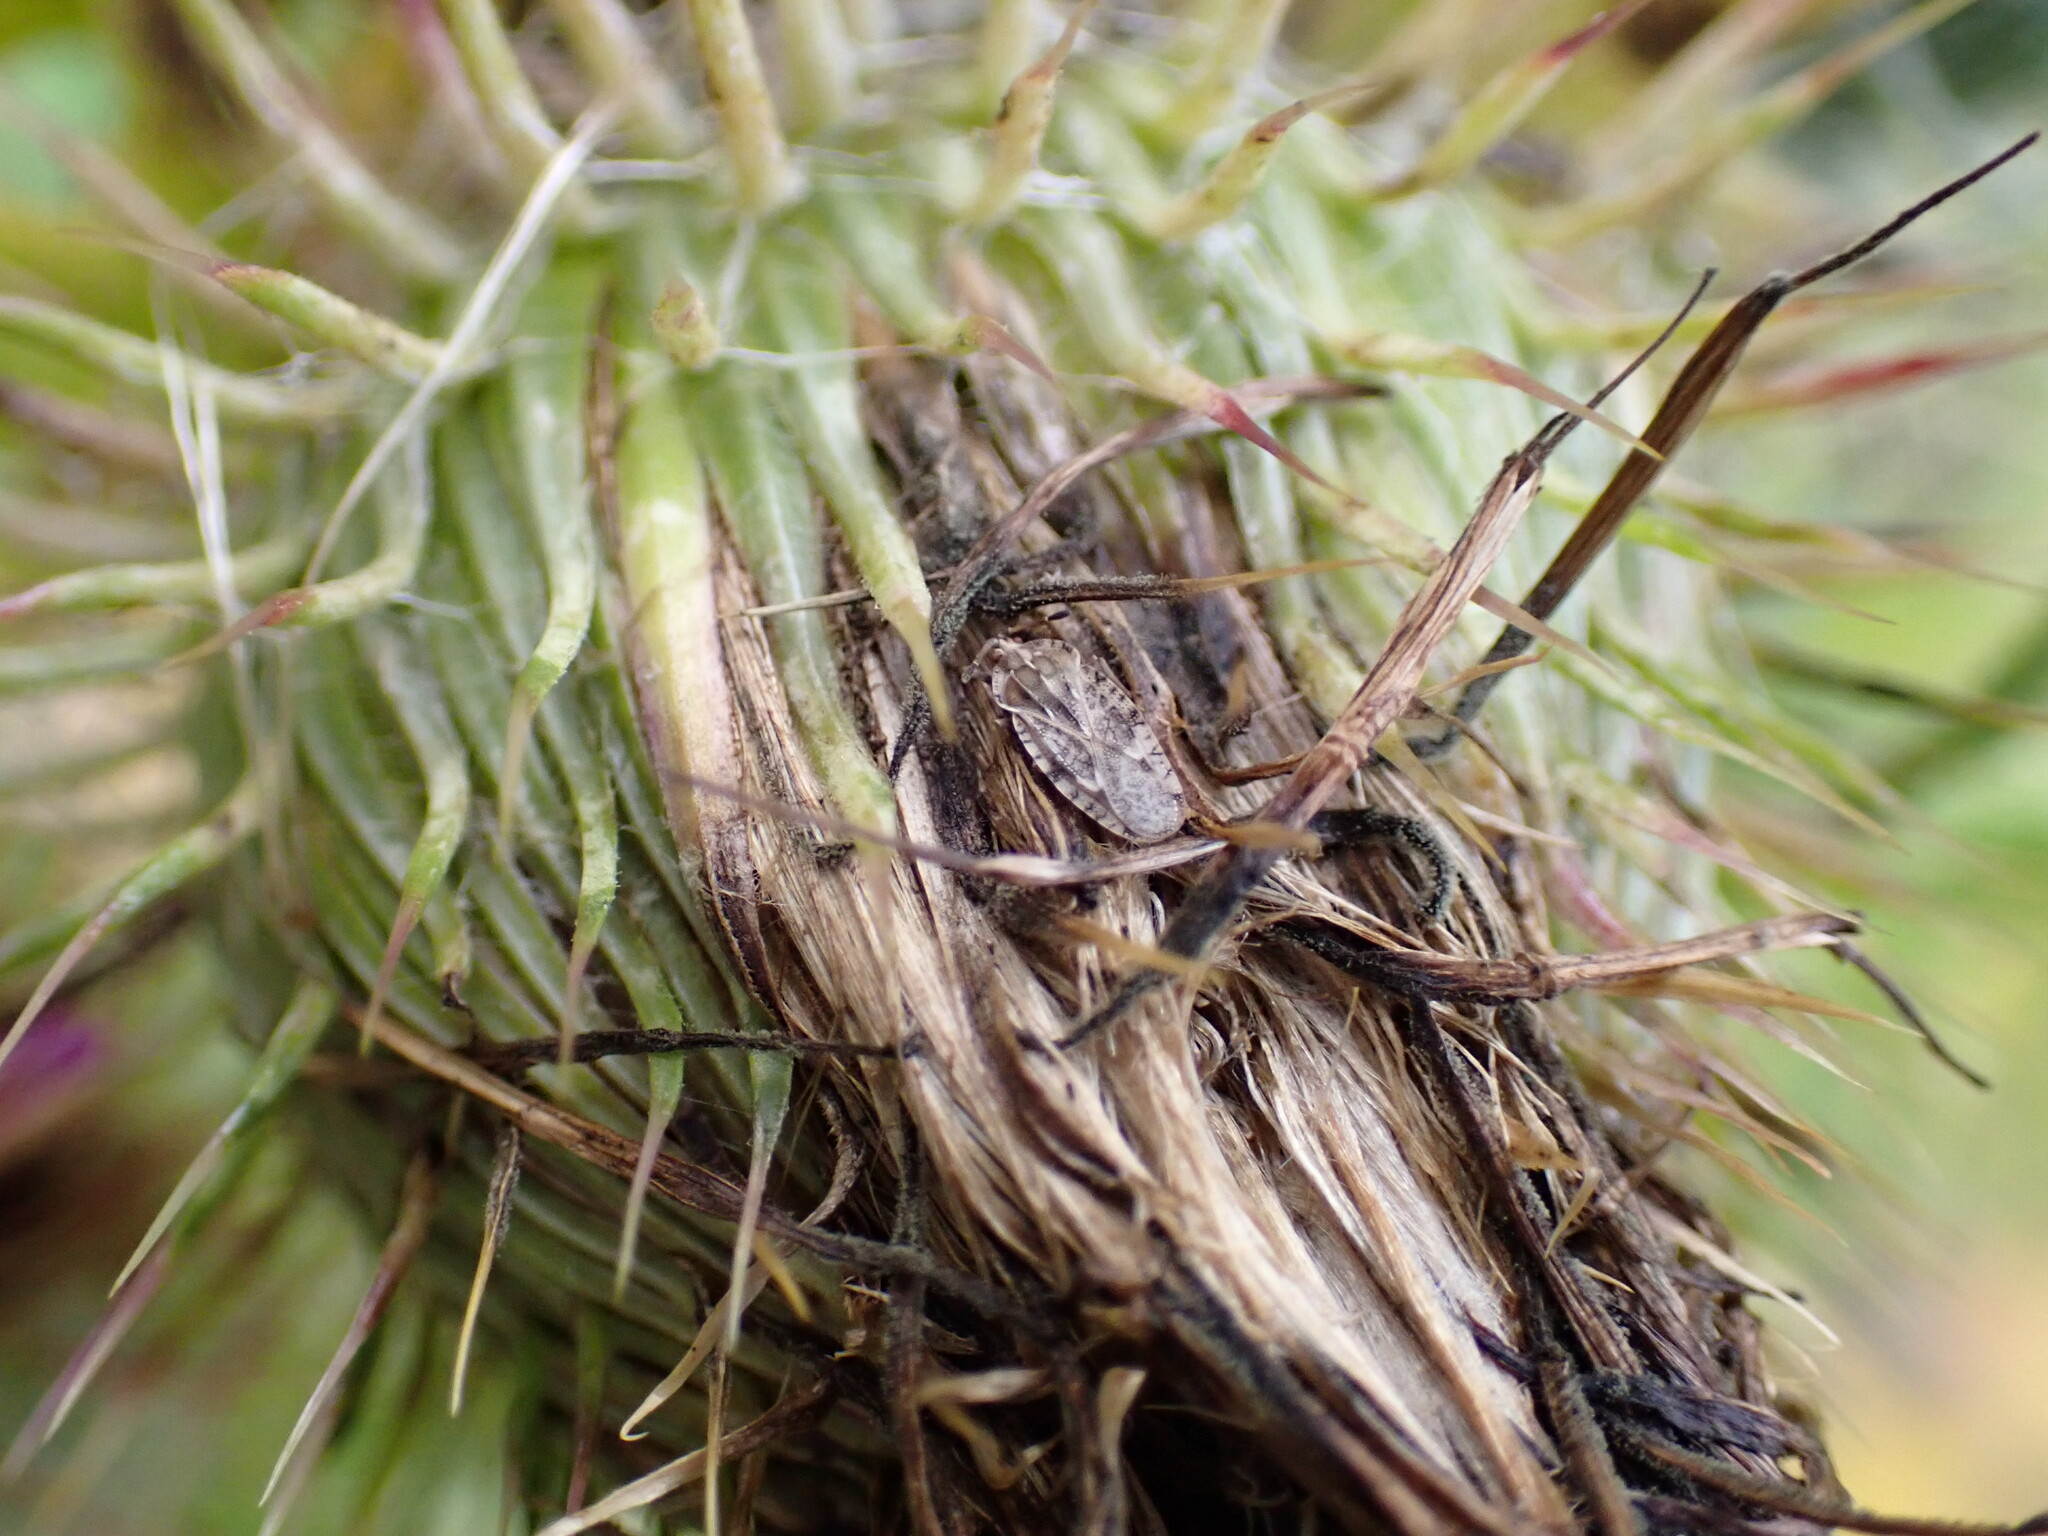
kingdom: Animalia
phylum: Arthropoda
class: Insecta
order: Hemiptera
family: Tingidae
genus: Tingis
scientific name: Tingis cardui
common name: Spear thistle lacebug
